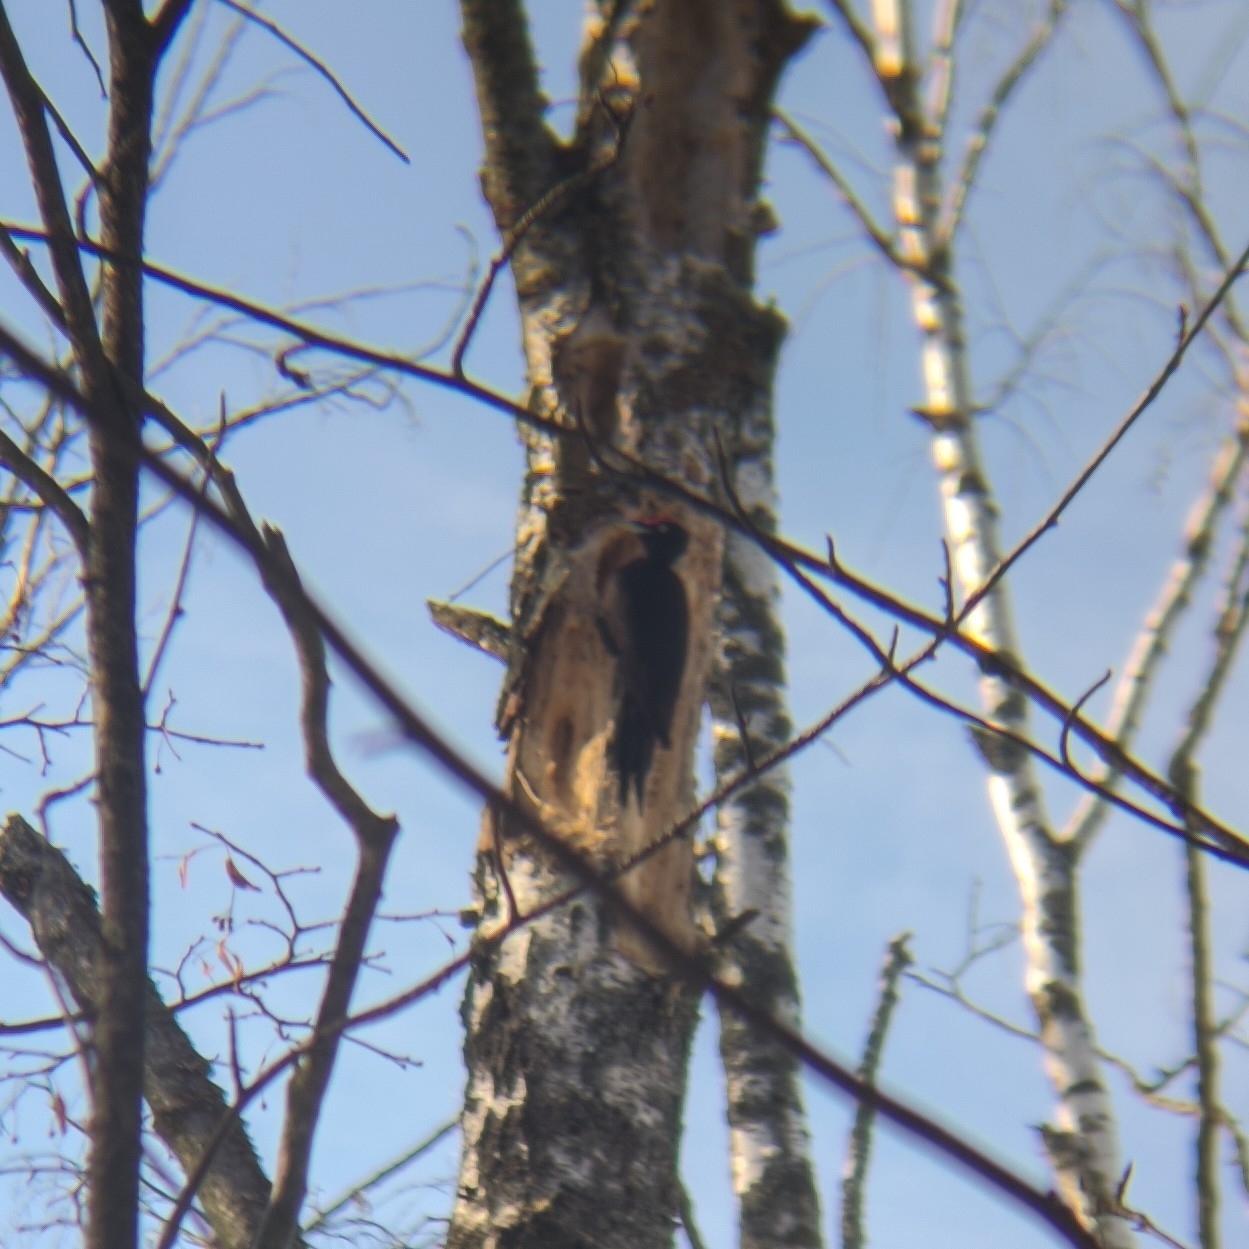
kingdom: Animalia
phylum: Chordata
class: Aves
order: Piciformes
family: Picidae
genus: Dryocopus
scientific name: Dryocopus martius
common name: Black woodpecker
